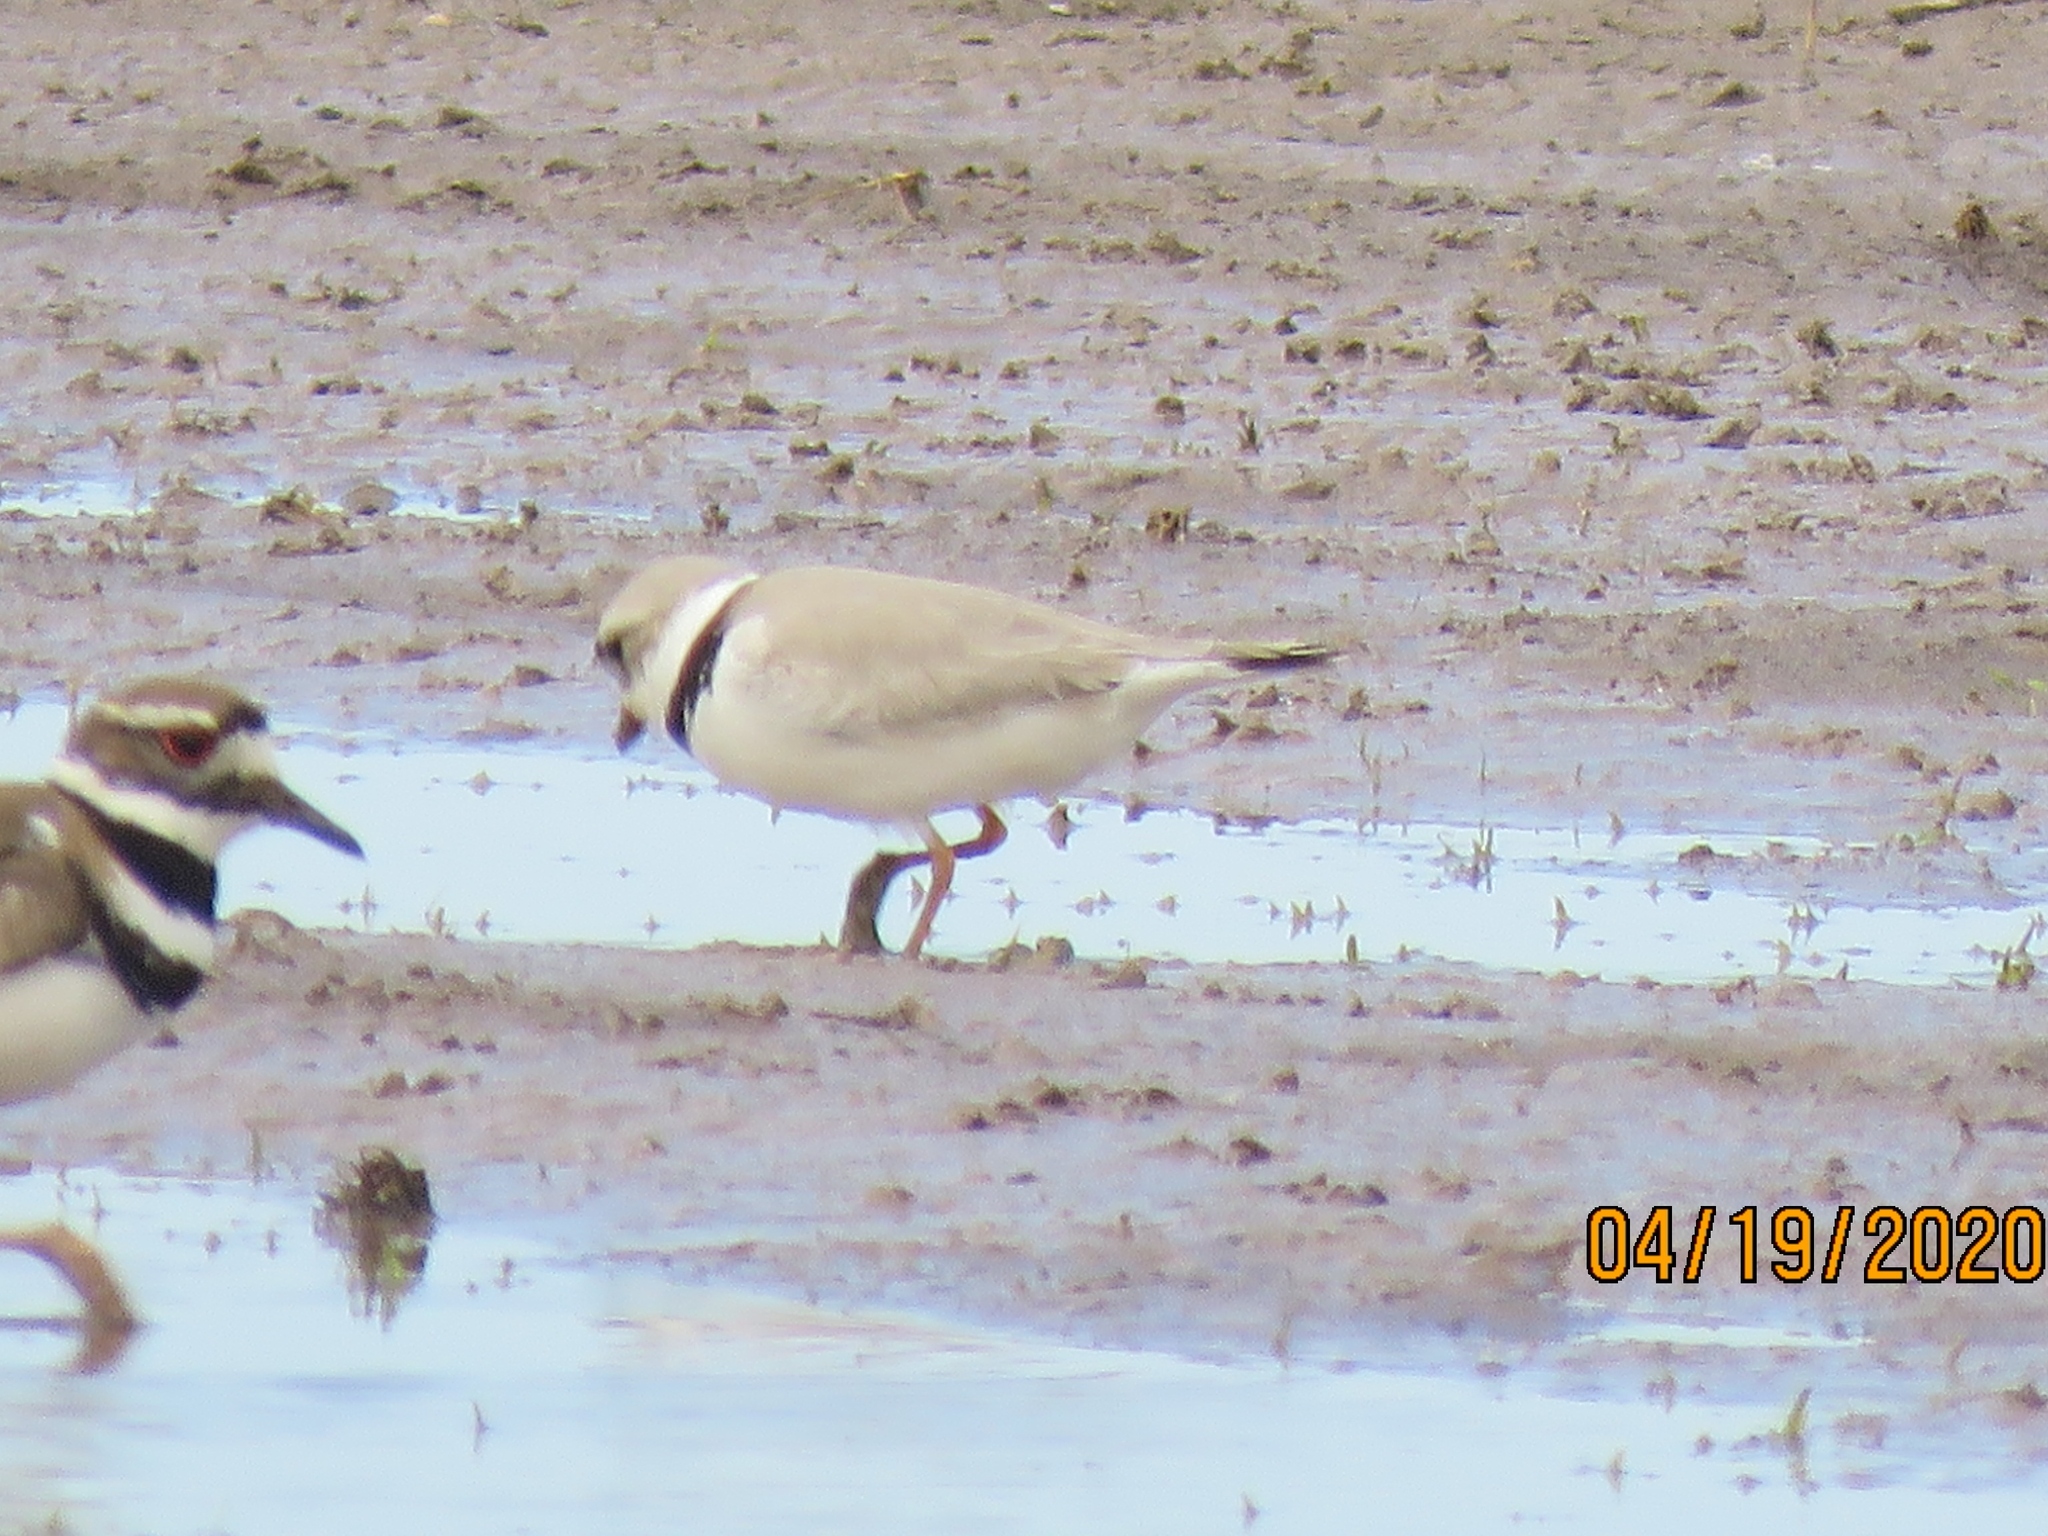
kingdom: Animalia
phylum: Chordata
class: Aves
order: Charadriiformes
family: Charadriidae
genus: Charadrius
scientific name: Charadrius melodus
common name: Piping plover
